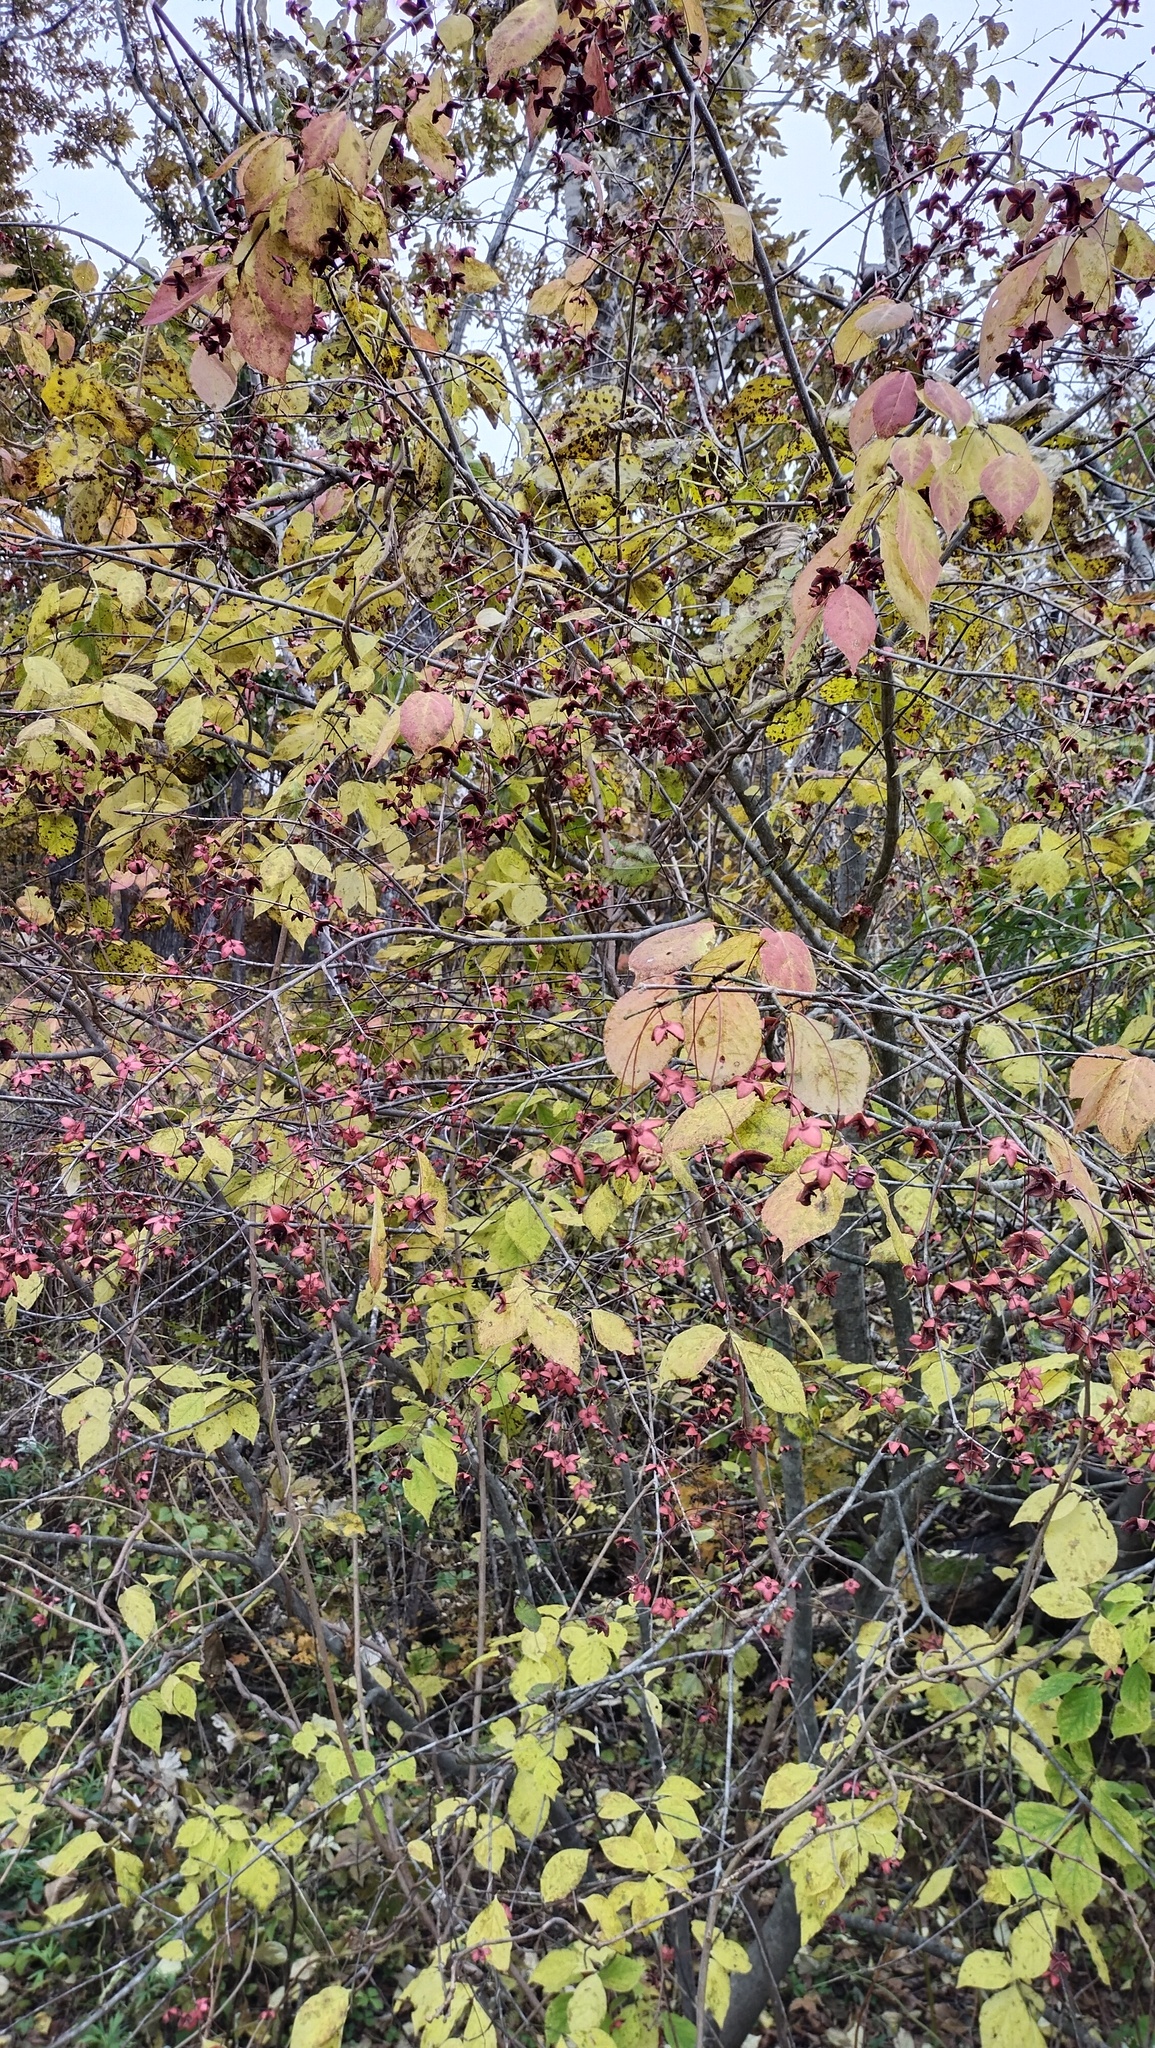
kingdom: Plantae
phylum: Tracheophyta
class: Magnoliopsida
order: Celastrales
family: Celastraceae
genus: Euonymus
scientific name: Euonymus sachalinensis
